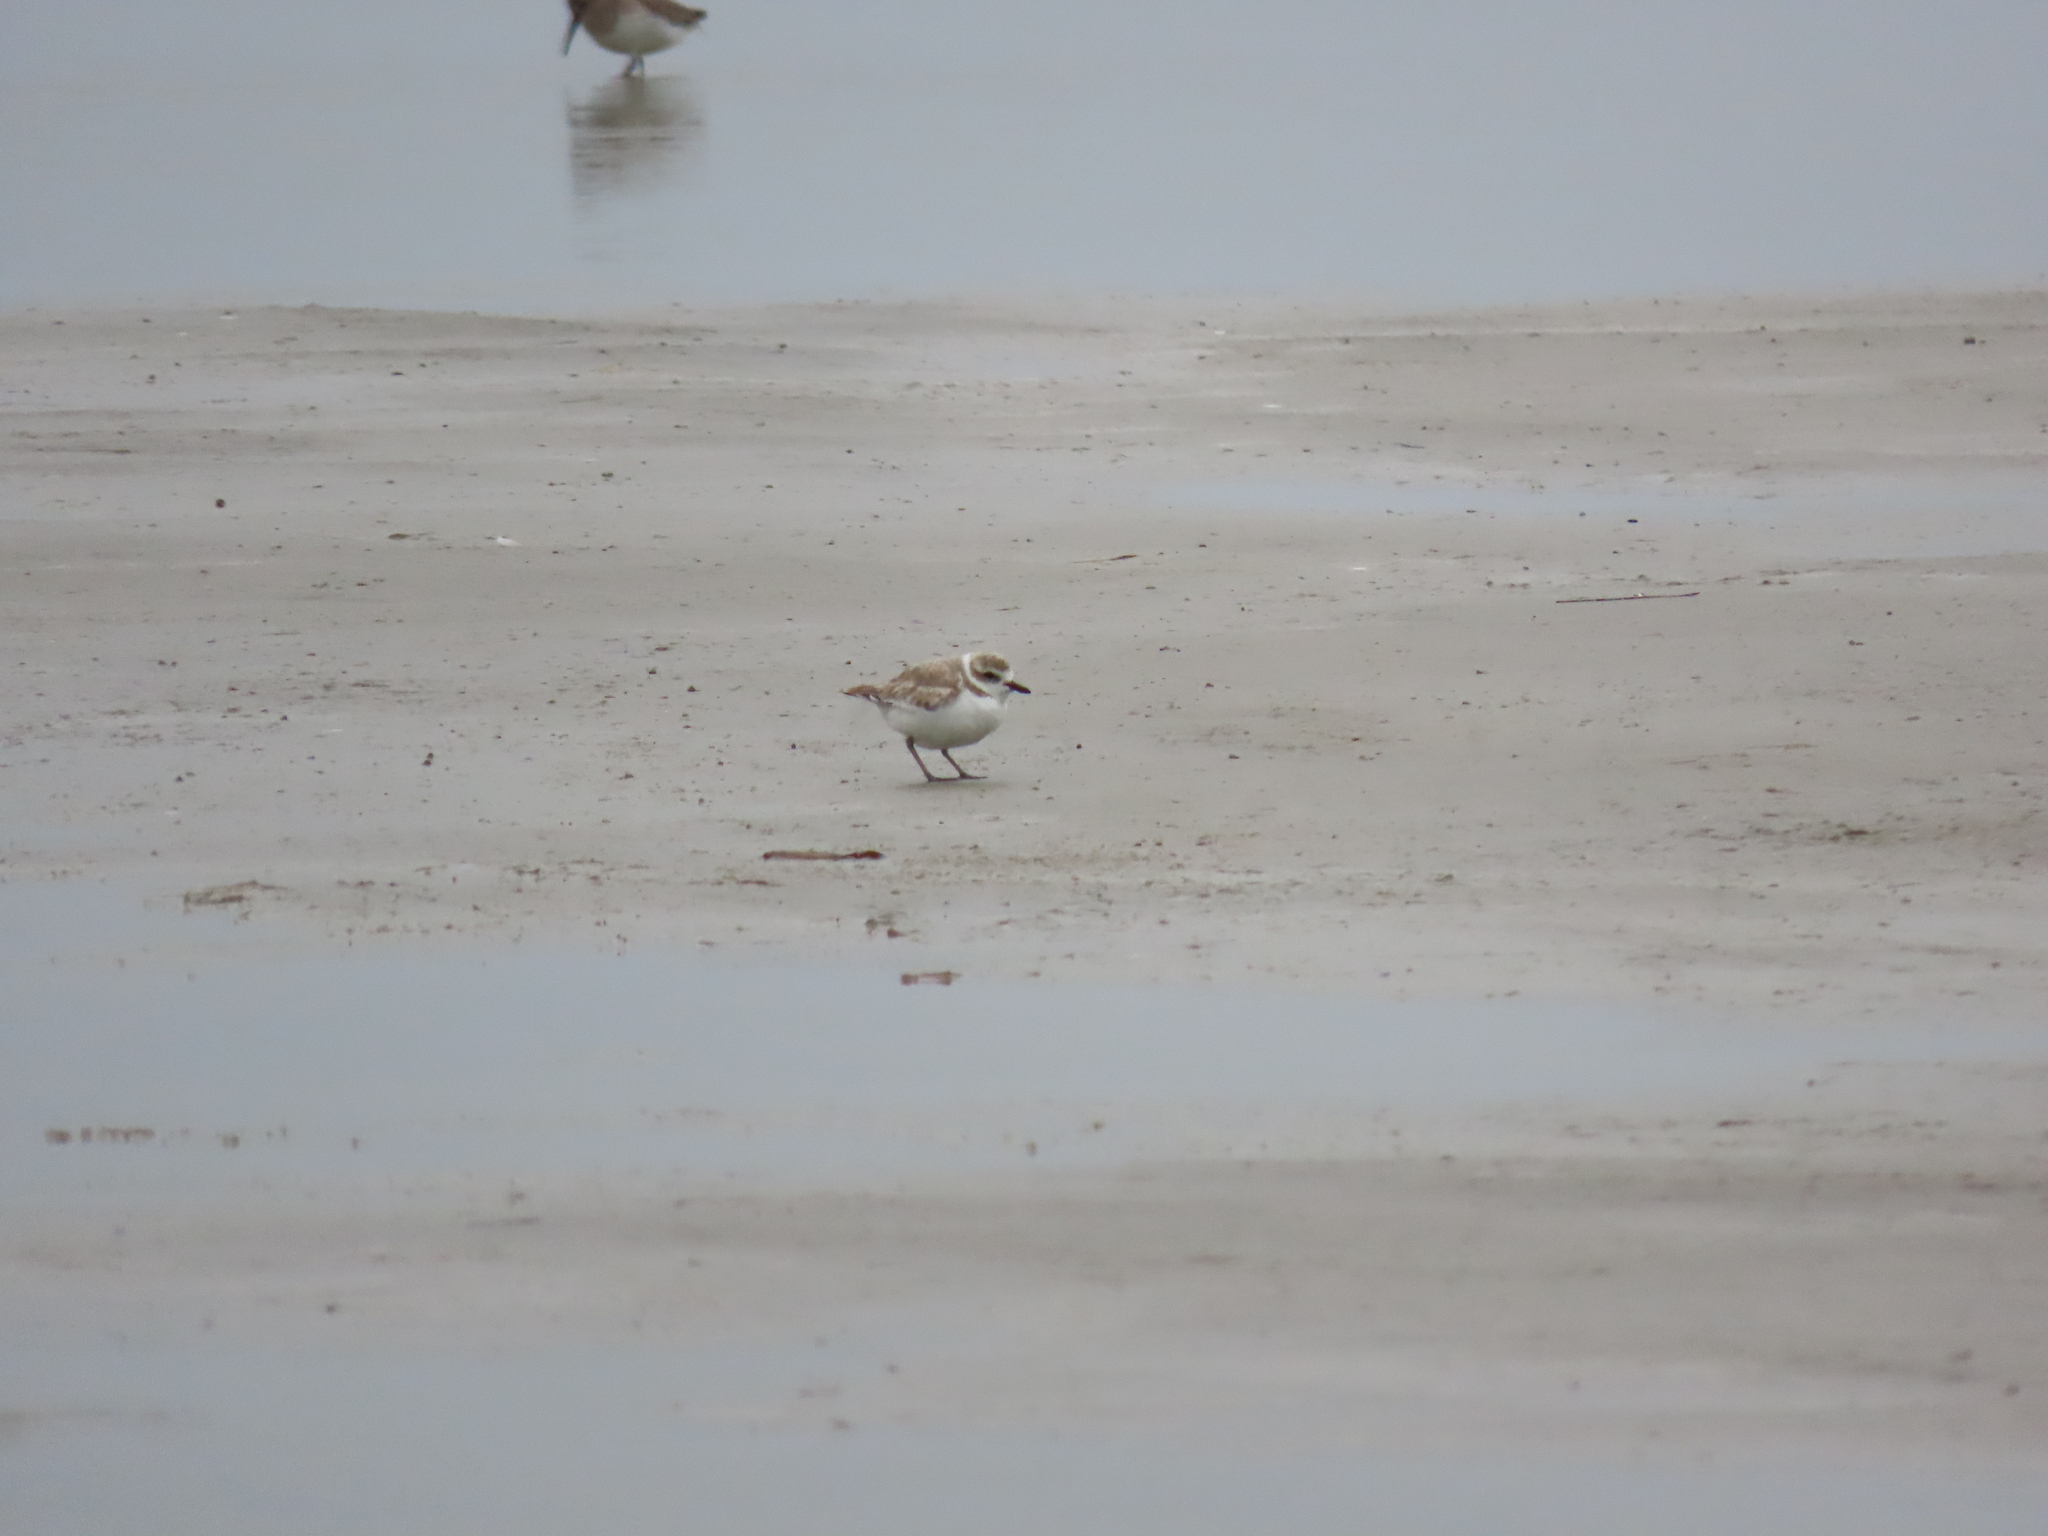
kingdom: Animalia
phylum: Chordata
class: Aves
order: Charadriiformes
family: Charadriidae
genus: Anarhynchus
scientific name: Anarhynchus
